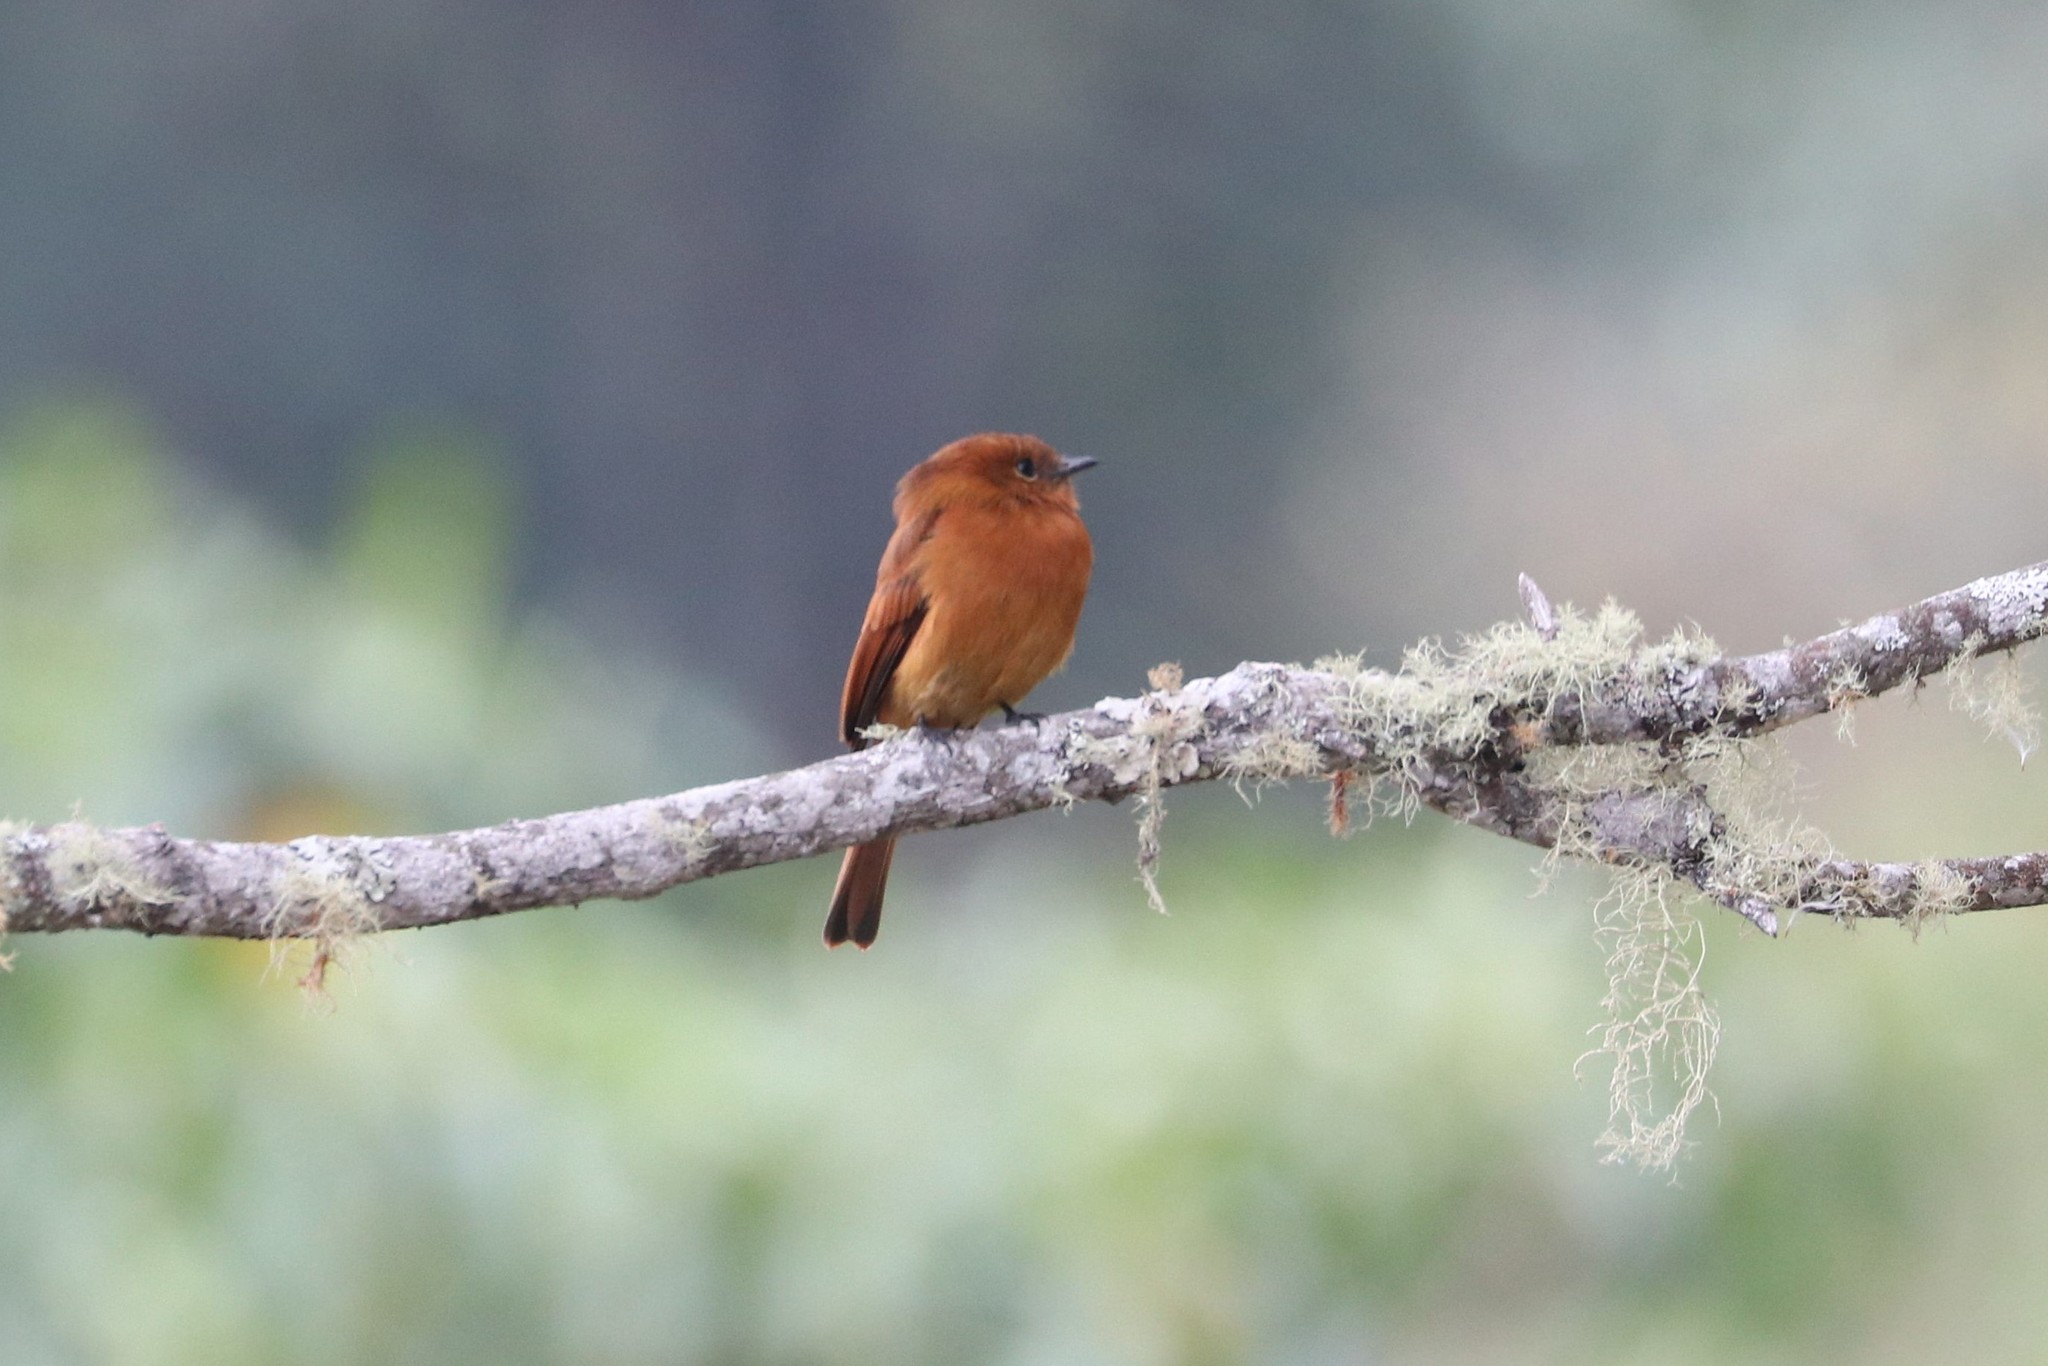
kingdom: Animalia
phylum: Chordata
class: Aves
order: Passeriformes
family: Tyrannidae
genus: Pyrrhomyias
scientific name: Pyrrhomyias cinnamomeus
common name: Cinnamon flycatcher
